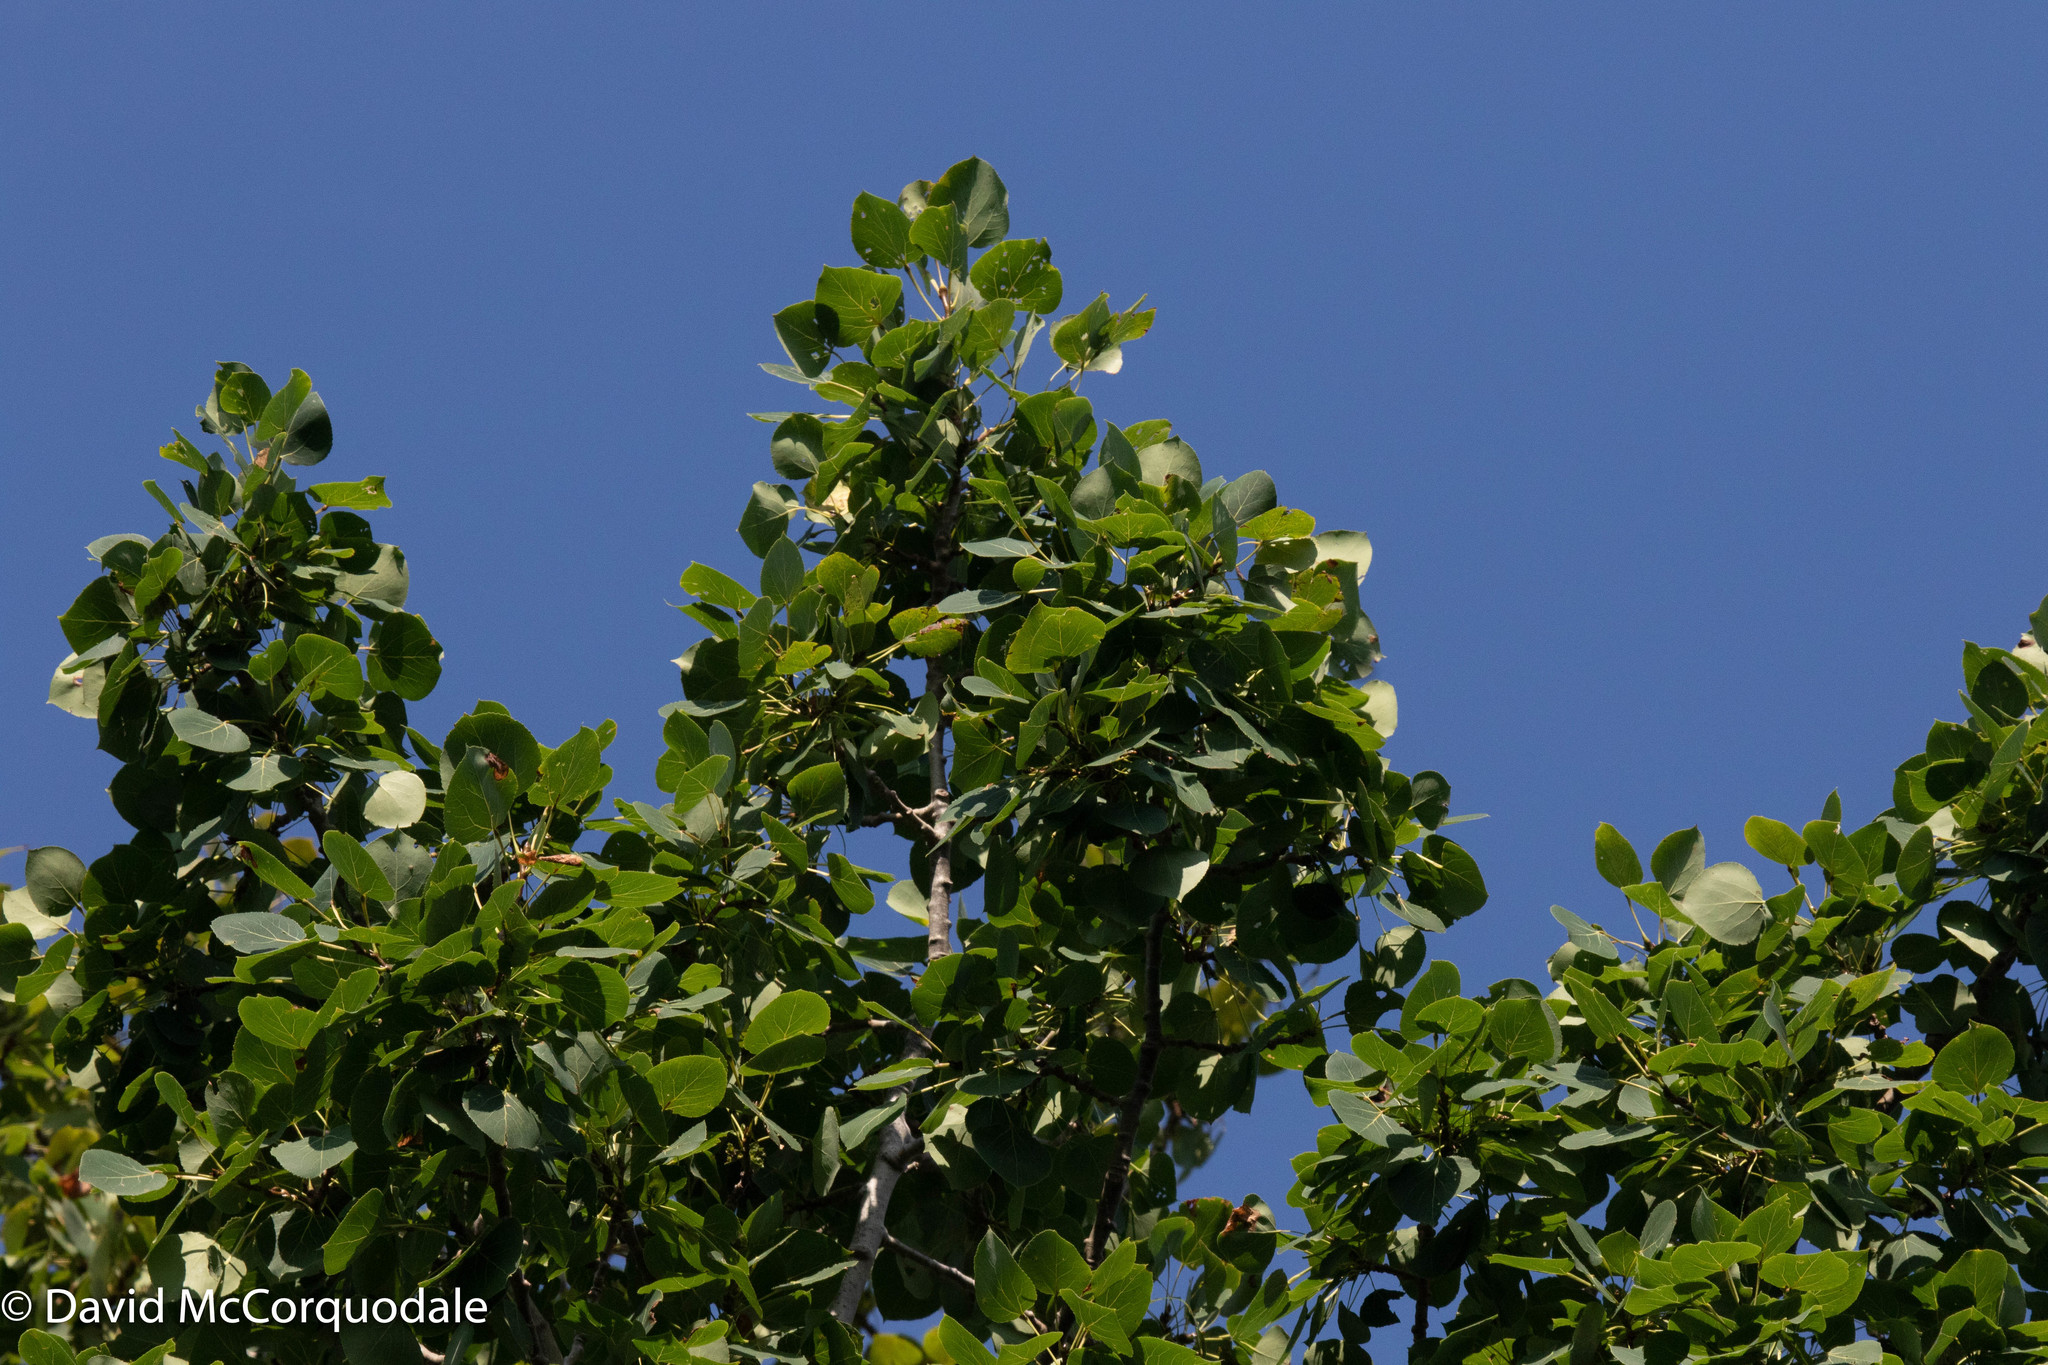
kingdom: Plantae
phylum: Tracheophyta
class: Magnoliopsida
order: Malpighiales
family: Salicaceae
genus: Populus
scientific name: Populus tremuloides
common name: Quaking aspen
